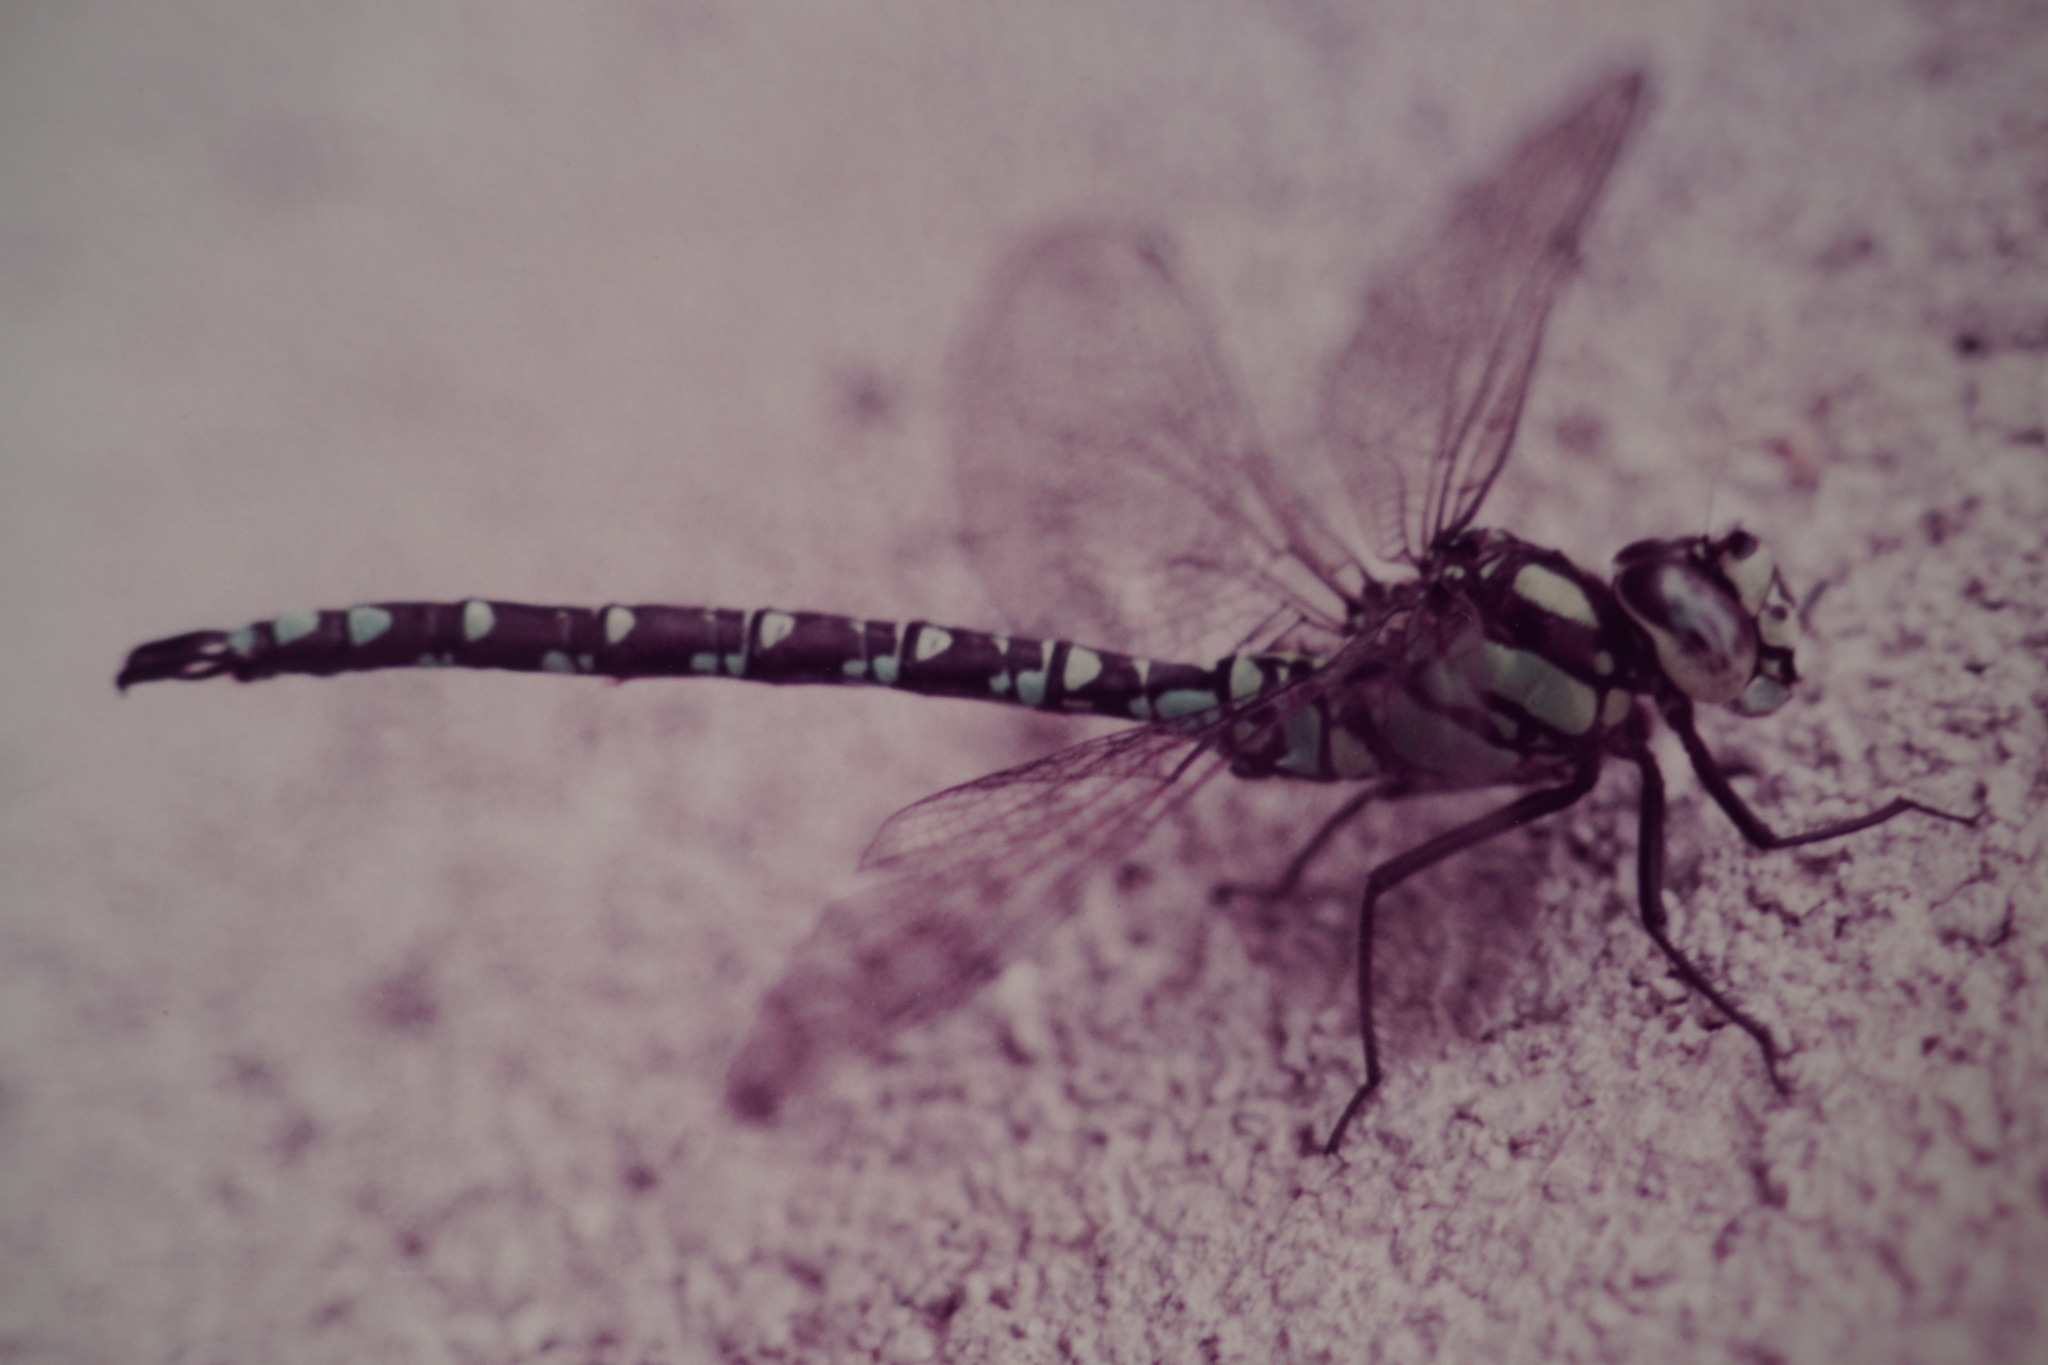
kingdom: Animalia
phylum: Arthropoda
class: Insecta
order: Odonata
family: Aeshnidae
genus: Aeshna
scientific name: Aeshna cyanea
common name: Southern hawker
